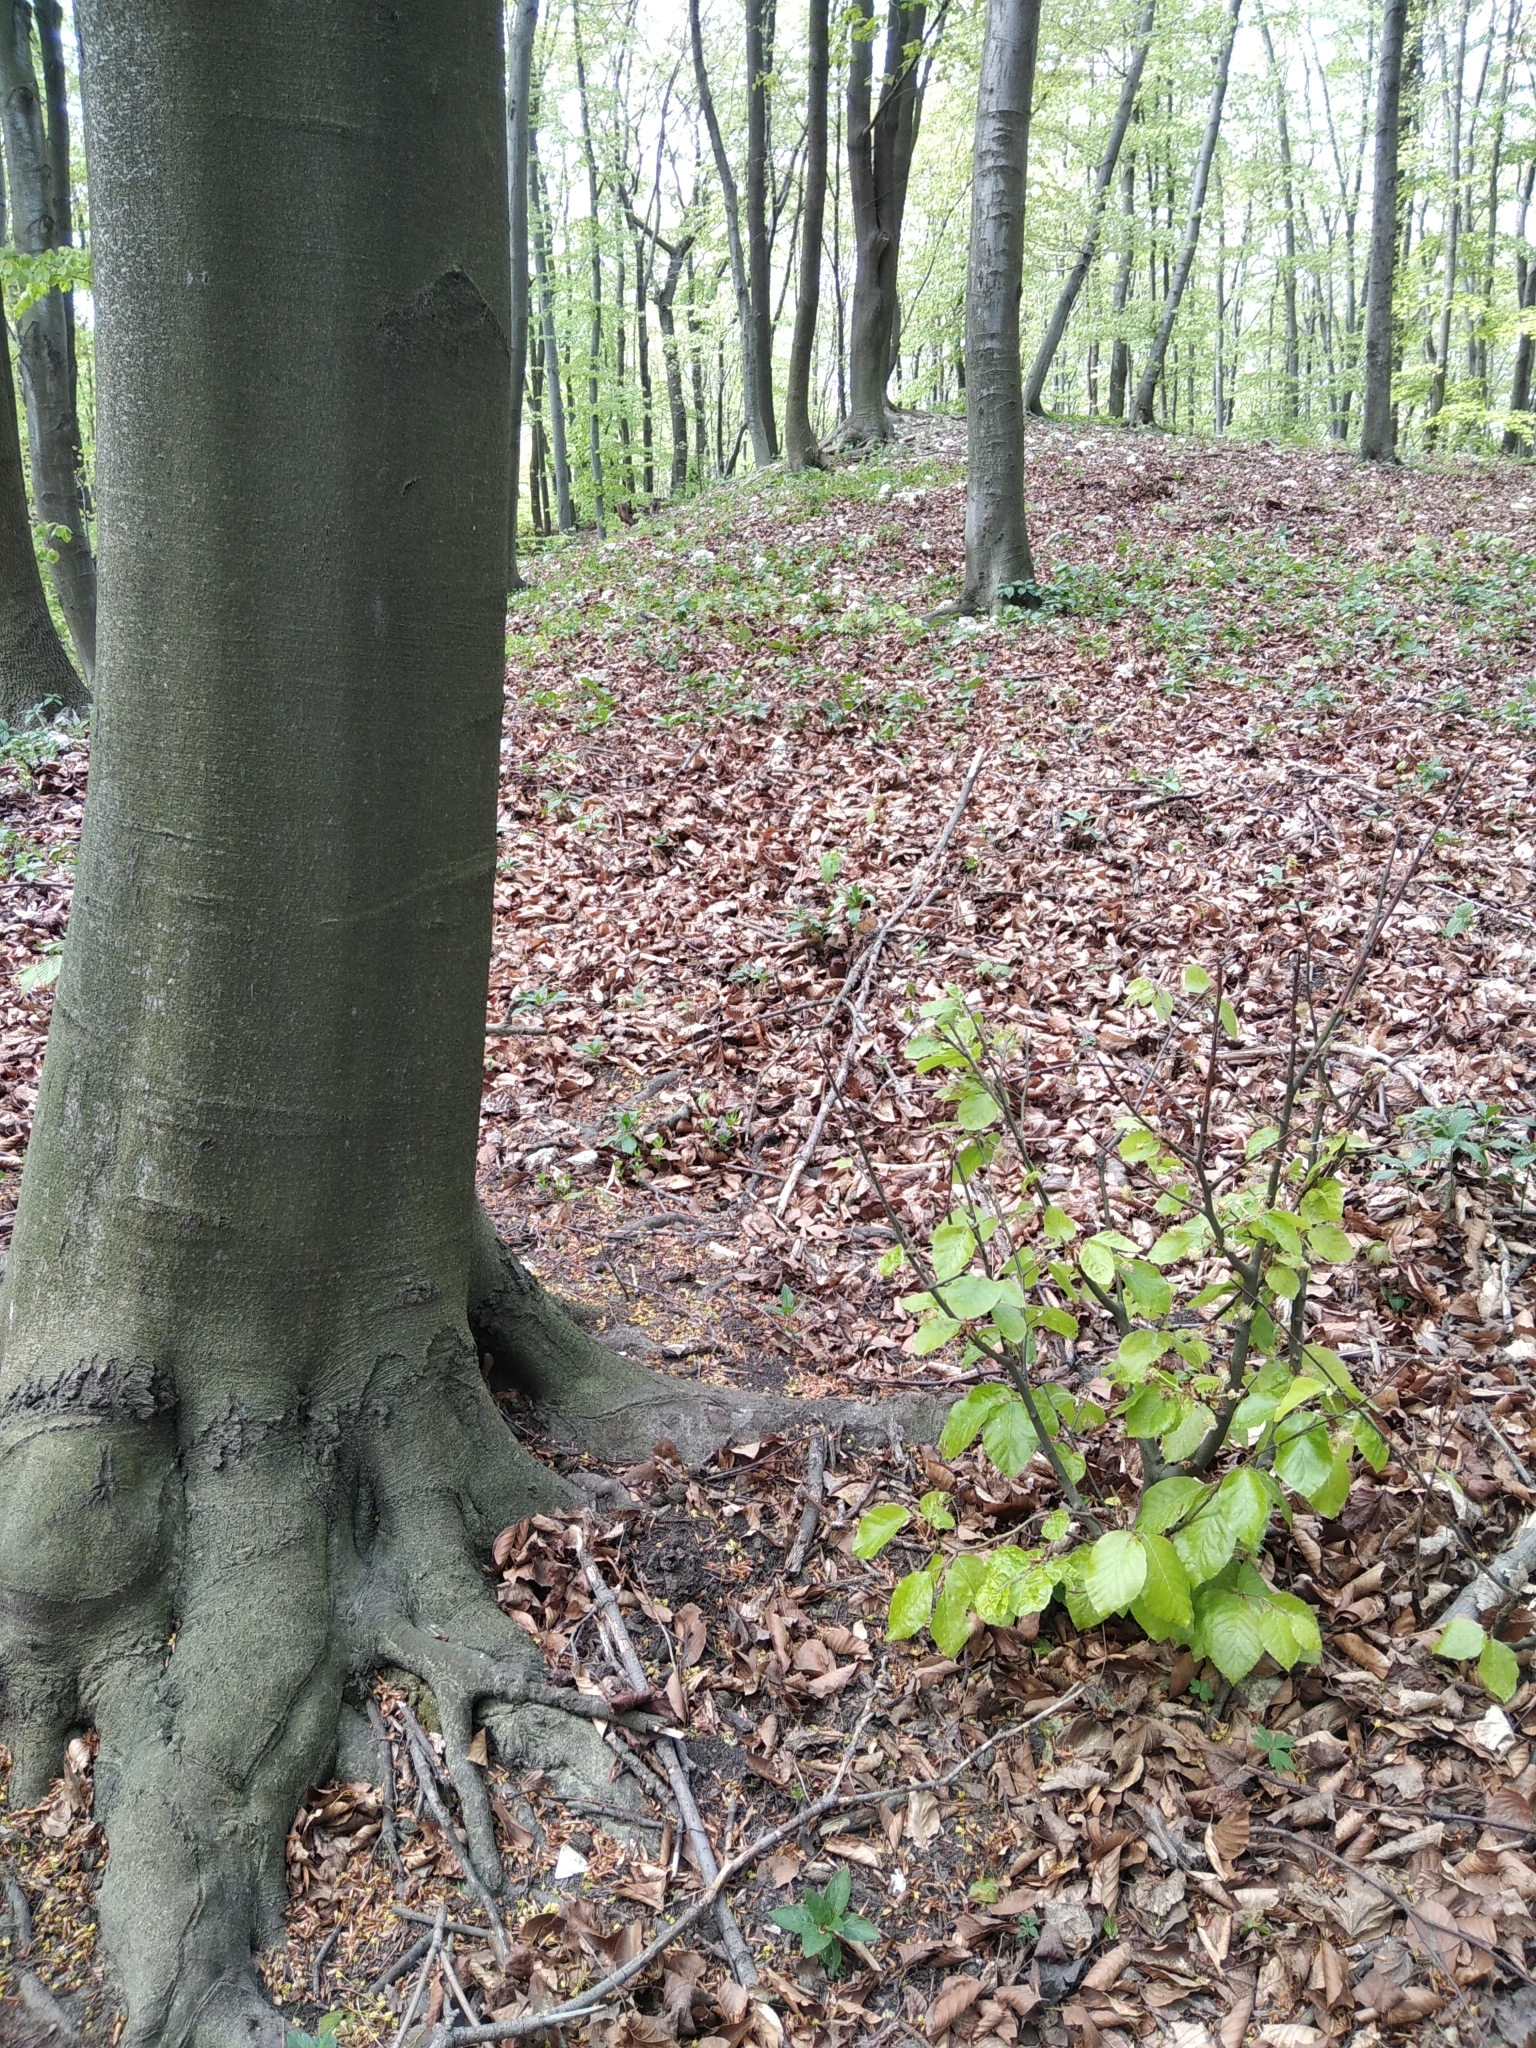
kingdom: Plantae
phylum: Tracheophyta
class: Magnoliopsida
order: Fagales
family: Fagaceae
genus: Fagus
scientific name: Fagus sylvatica
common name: Beech
